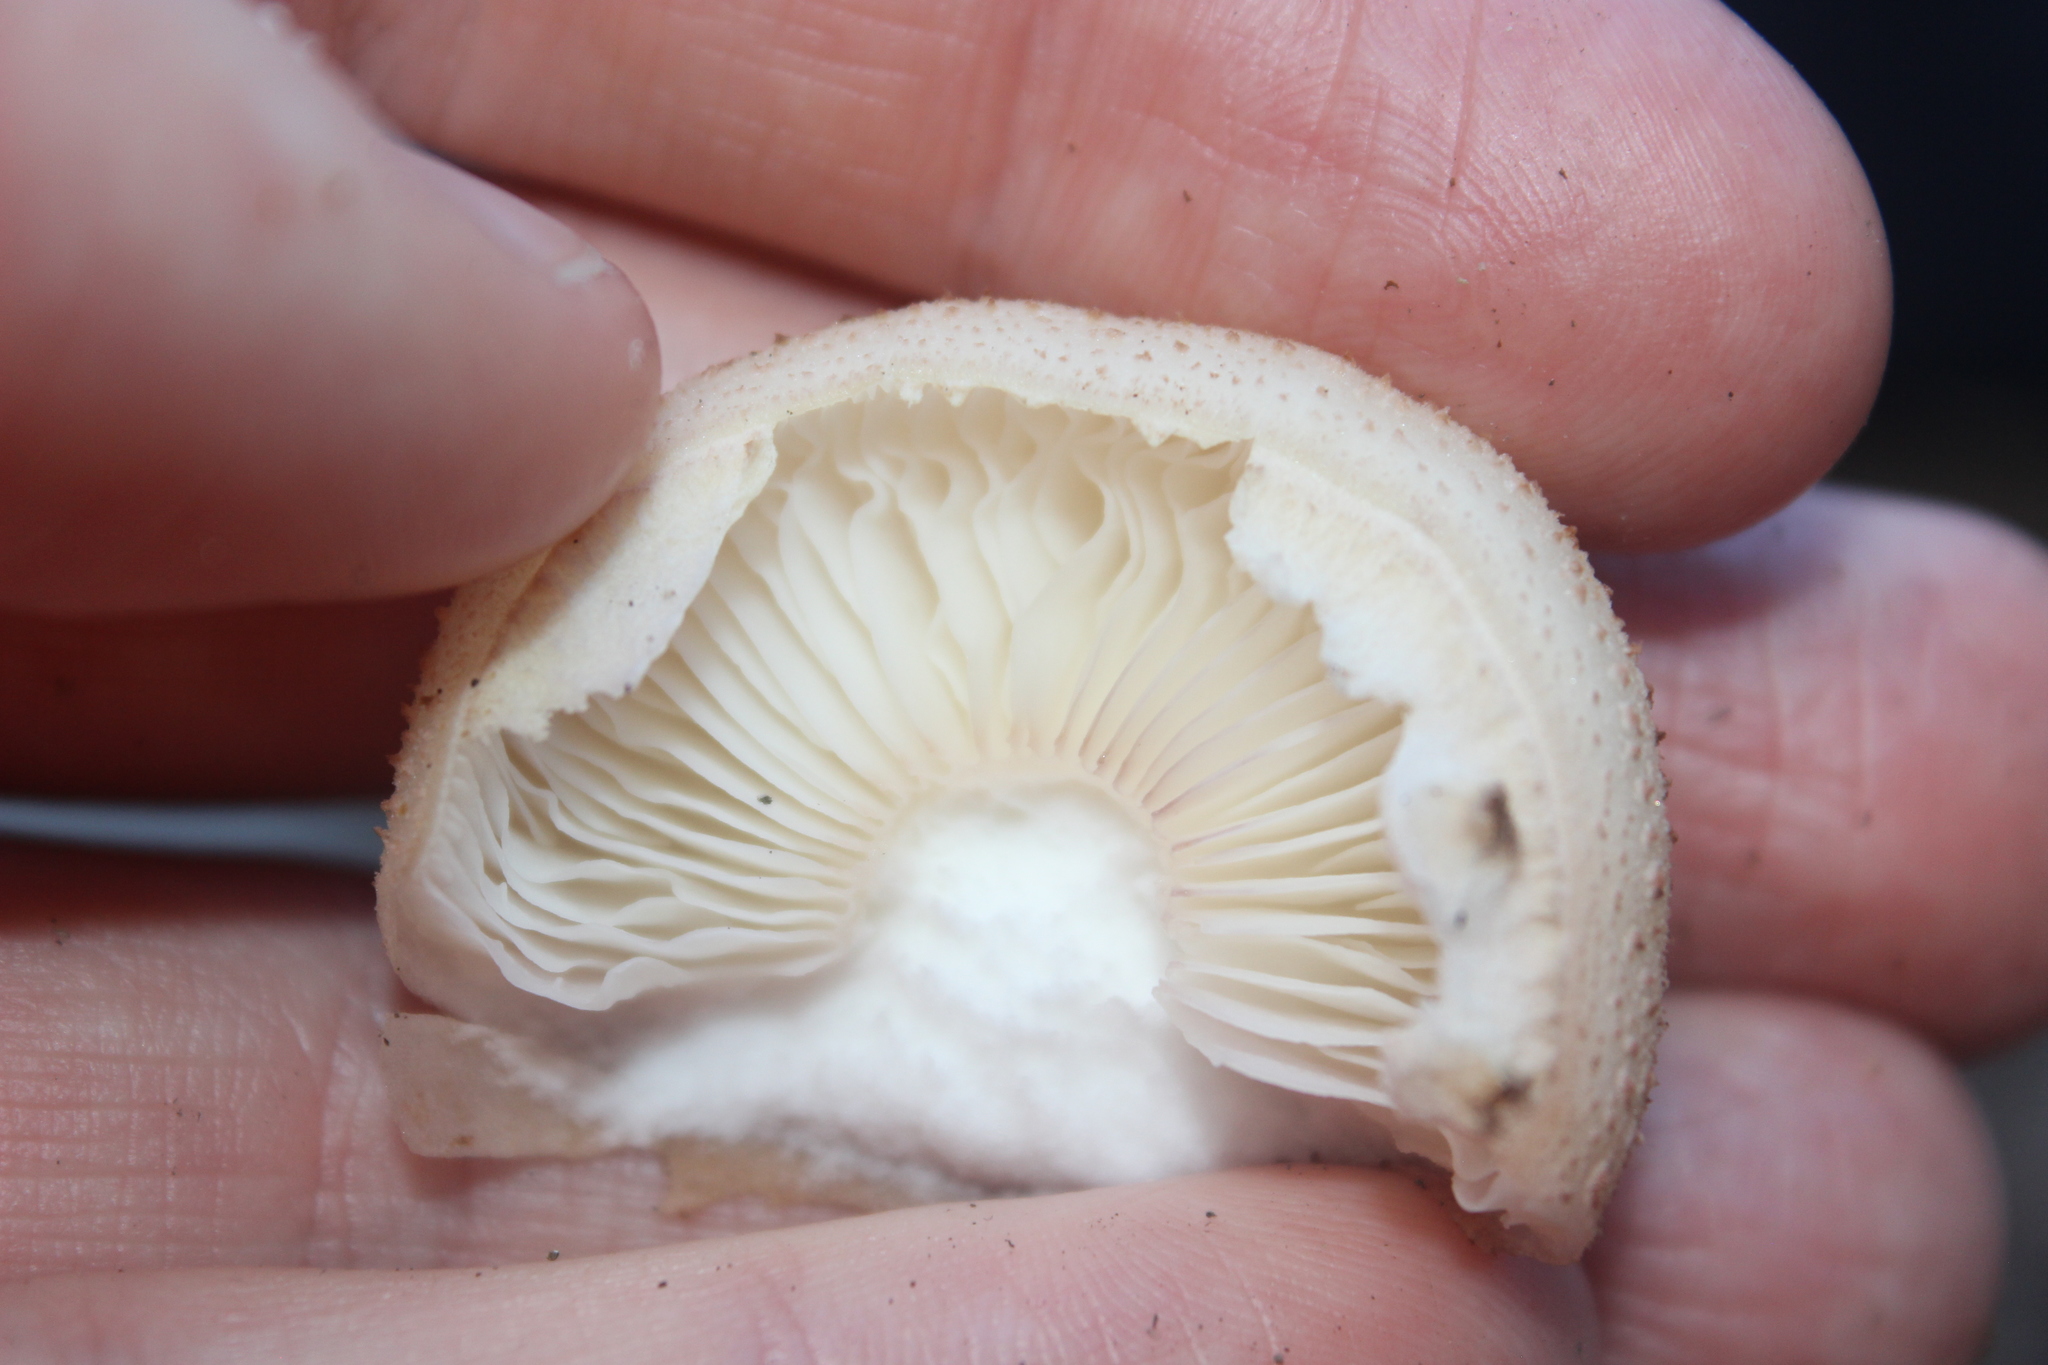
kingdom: Fungi
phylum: Basidiomycota
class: Agaricomycetes
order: Agaricales
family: Physalacriaceae
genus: Armillaria
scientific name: Armillaria limonea
